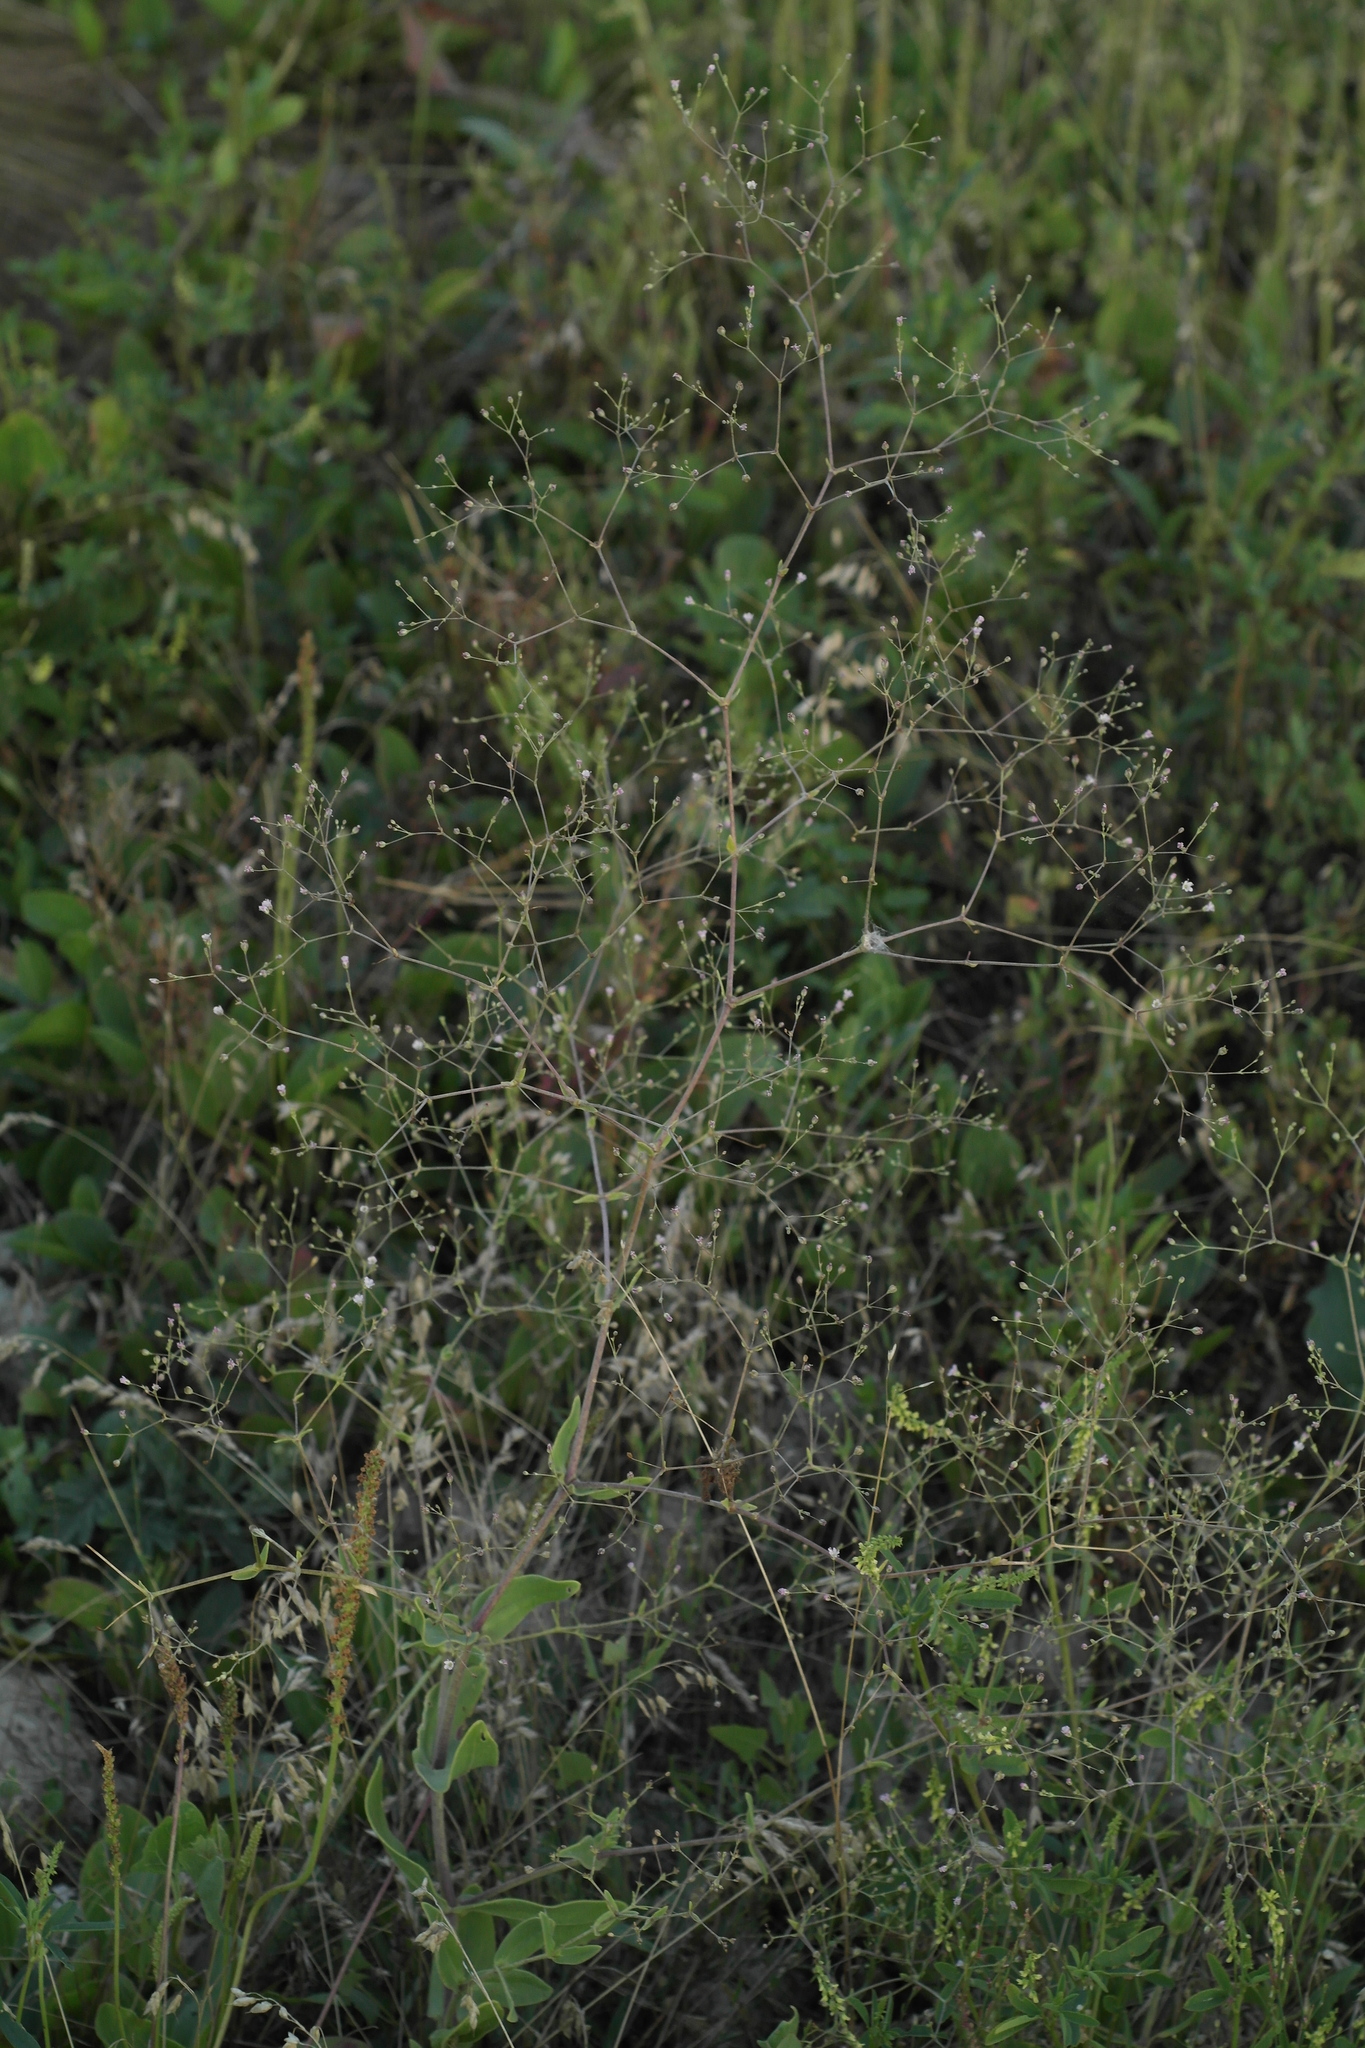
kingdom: Plantae
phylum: Tracheophyta
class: Magnoliopsida
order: Caryophyllales
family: Caryophyllaceae
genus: Gypsophila
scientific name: Gypsophila perfoliata
